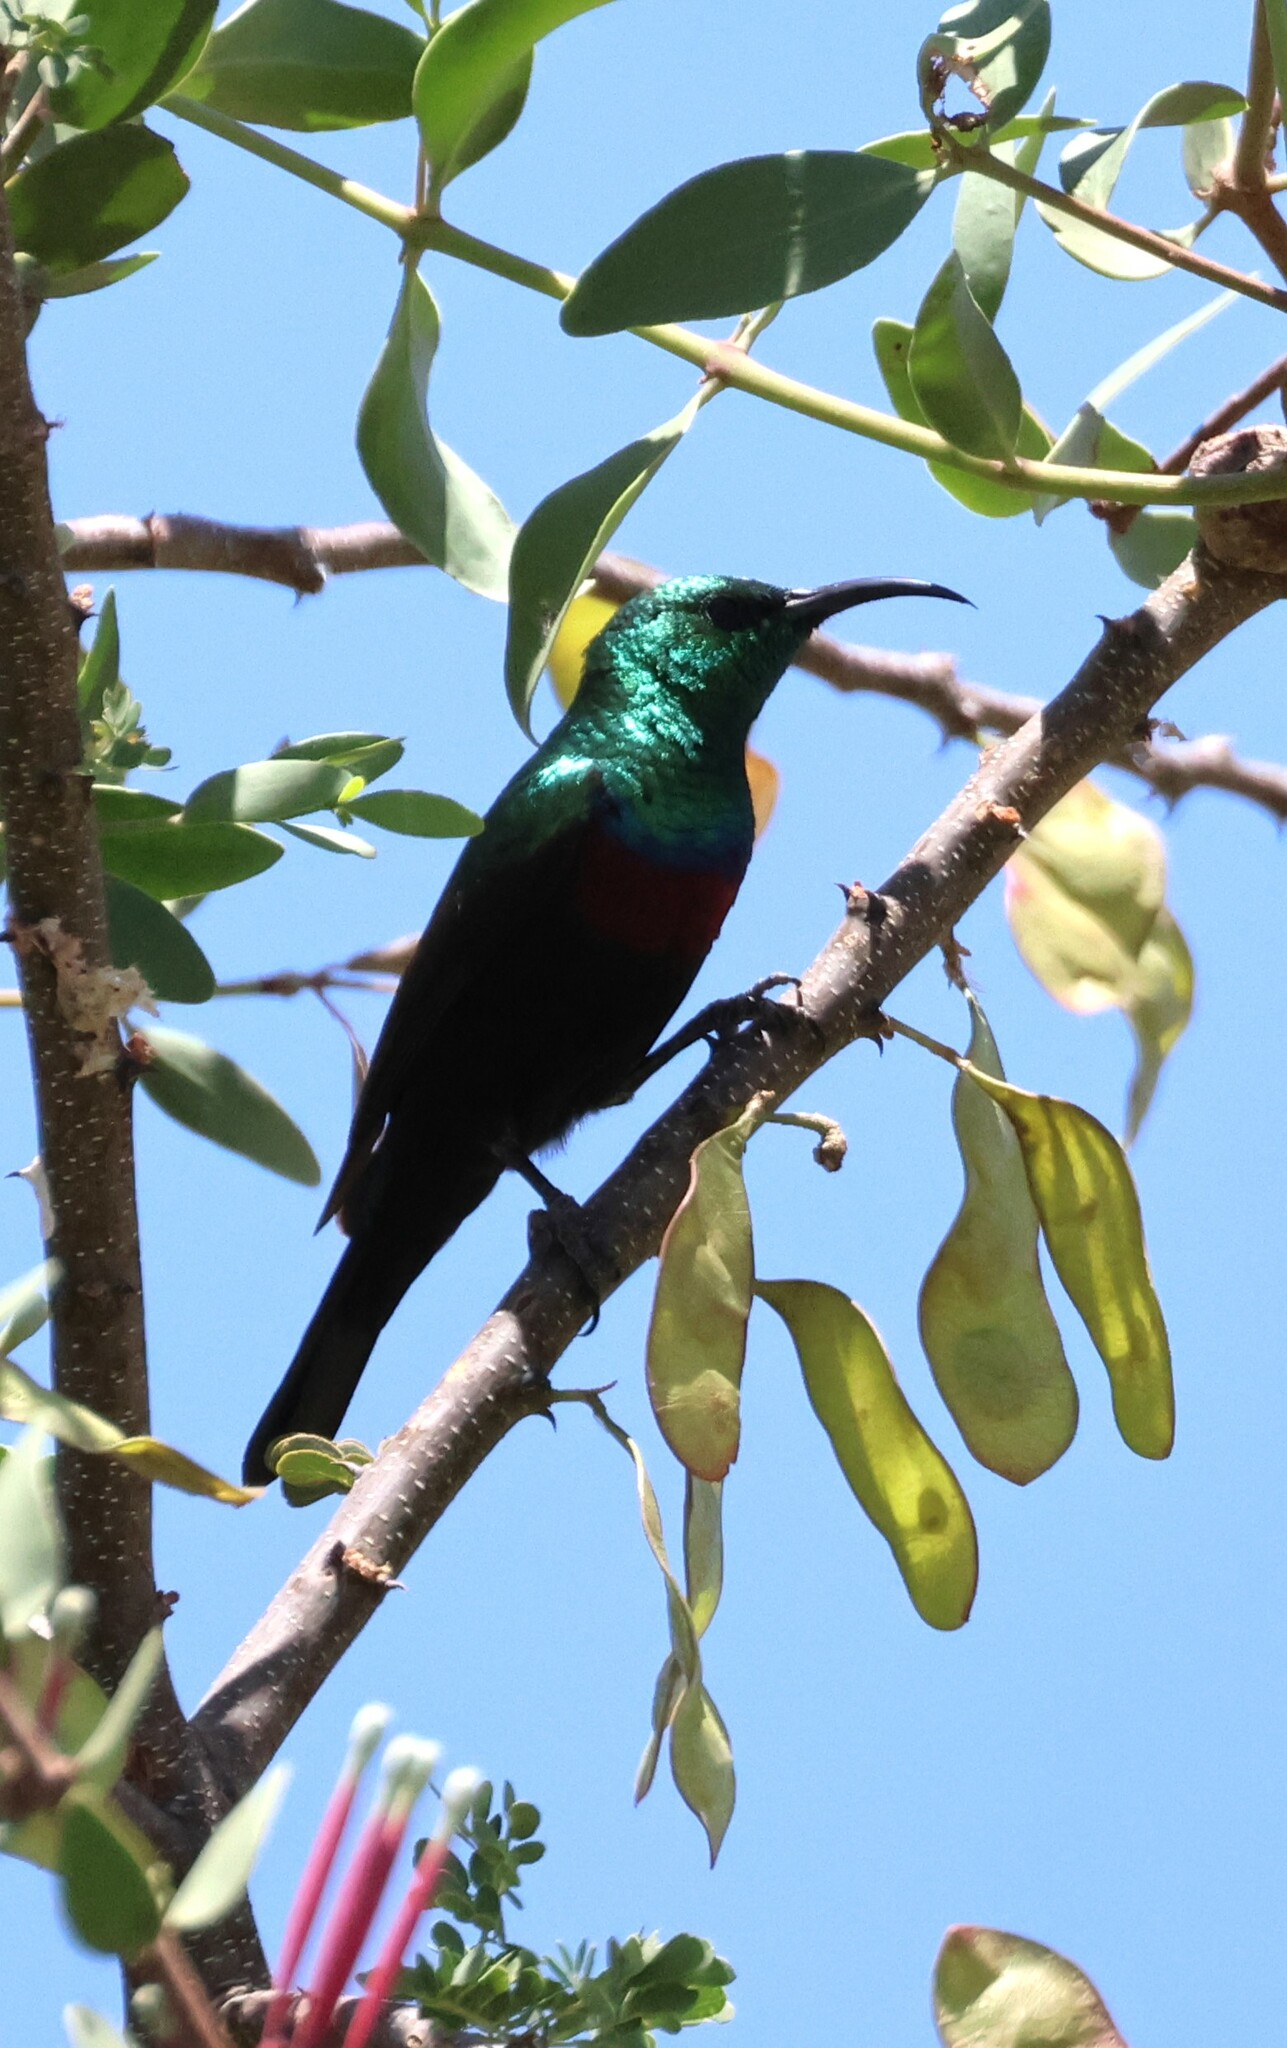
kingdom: Animalia
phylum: Chordata
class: Aves
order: Passeriformes
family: Nectariniidae
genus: Cinnyris
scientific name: Cinnyris mariquensis
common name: Marico sunbird
